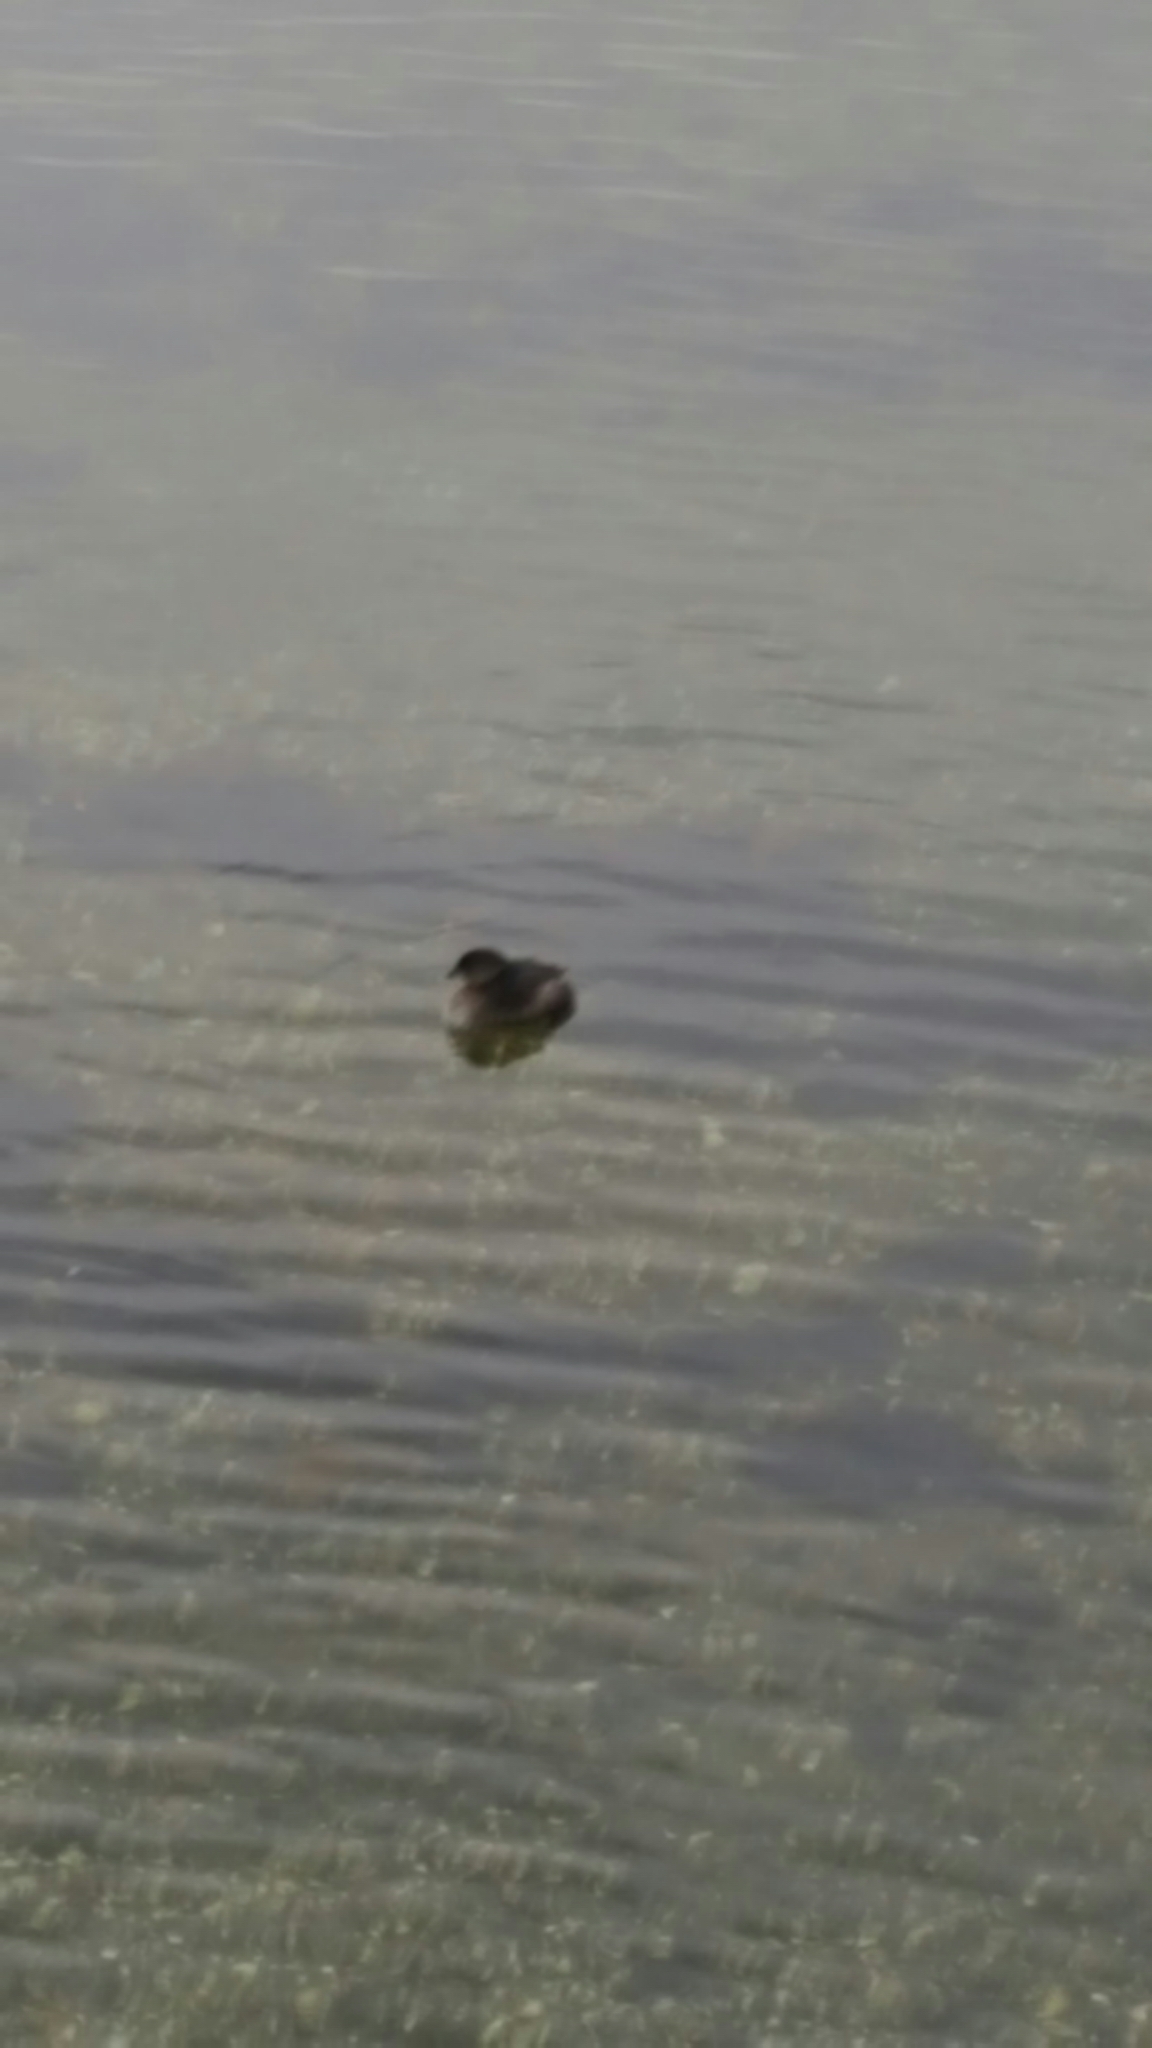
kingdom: Animalia
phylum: Chordata
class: Aves
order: Podicipediformes
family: Podicipedidae
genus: Podilymbus
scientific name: Podilymbus podiceps
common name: Pied-billed grebe
